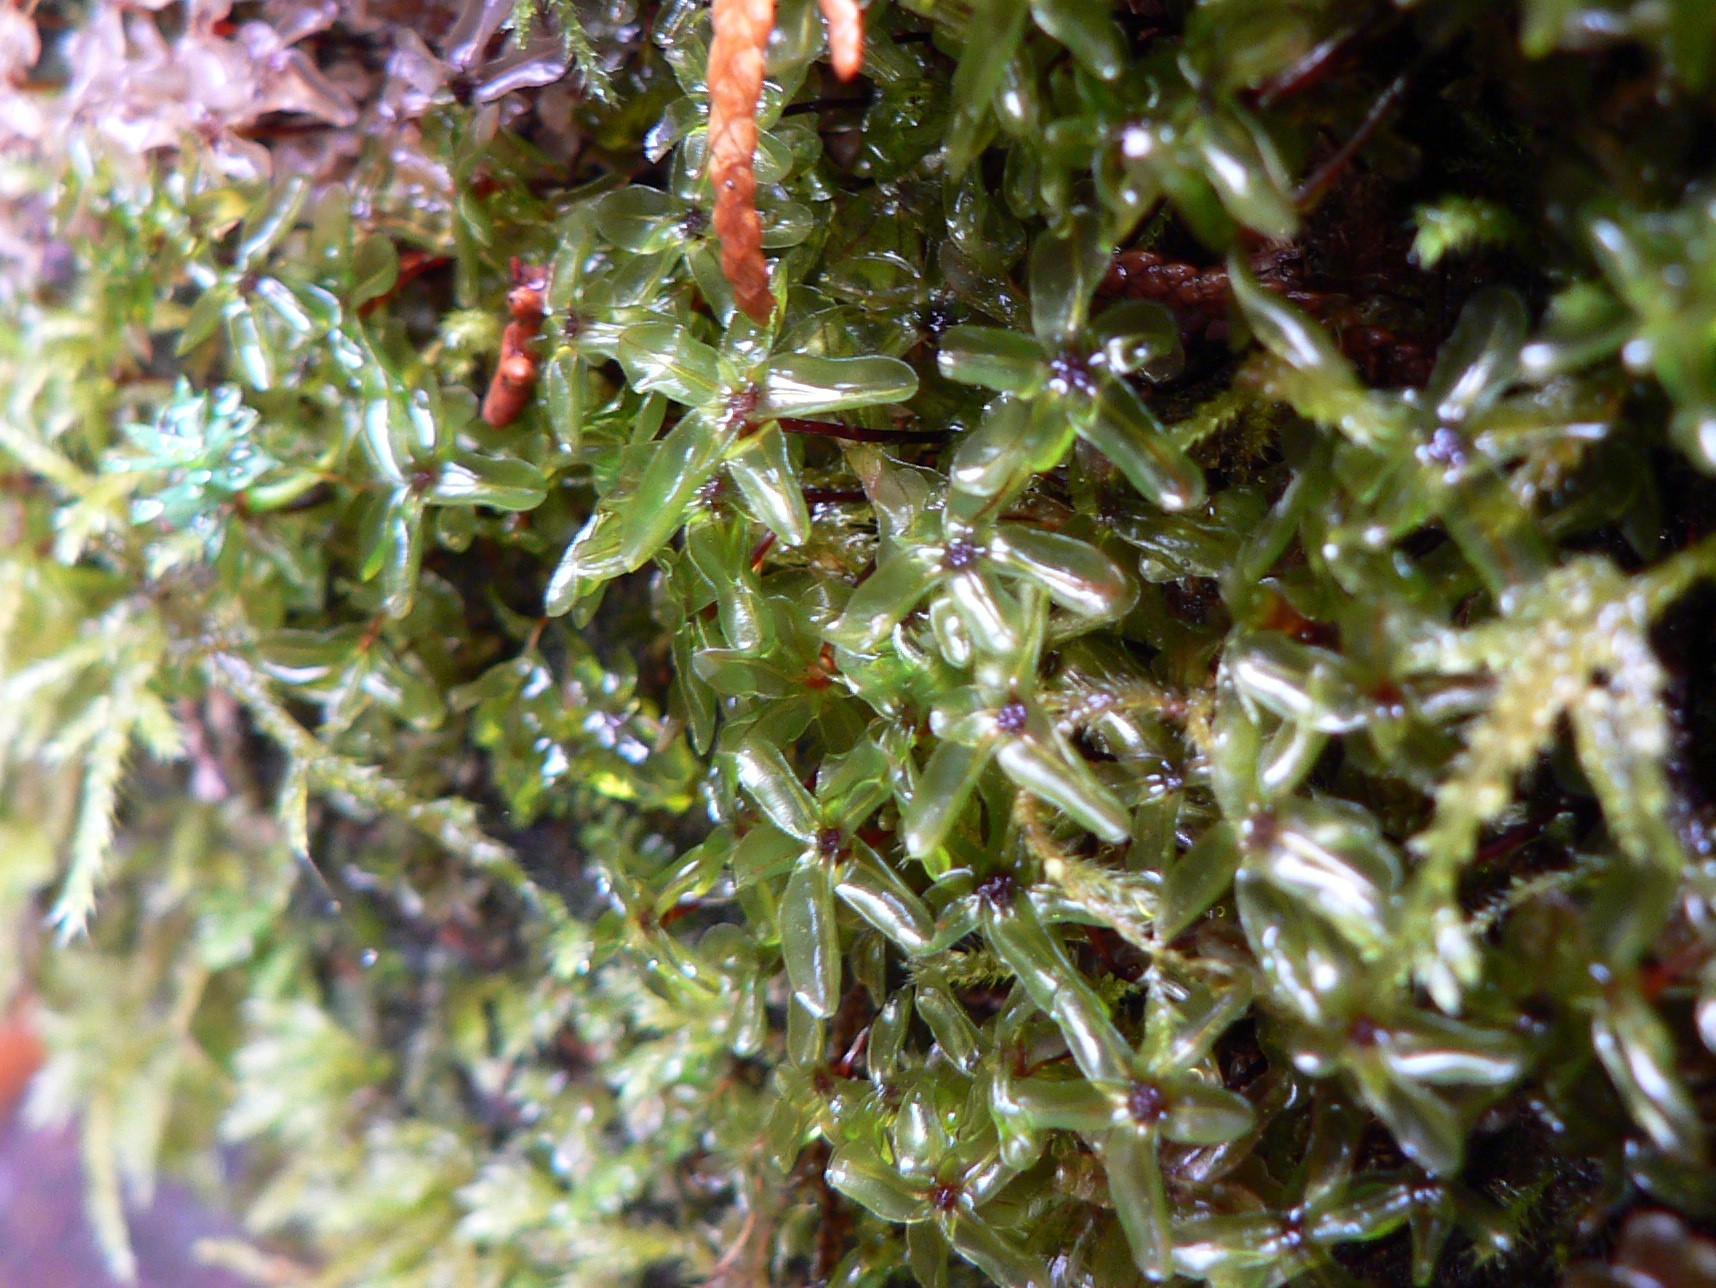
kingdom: Plantae
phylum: Bryophyta
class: Bryopsida
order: Bryales
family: Mniaceae
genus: Rhizomnium
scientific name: Rhizomnium glabrescens
